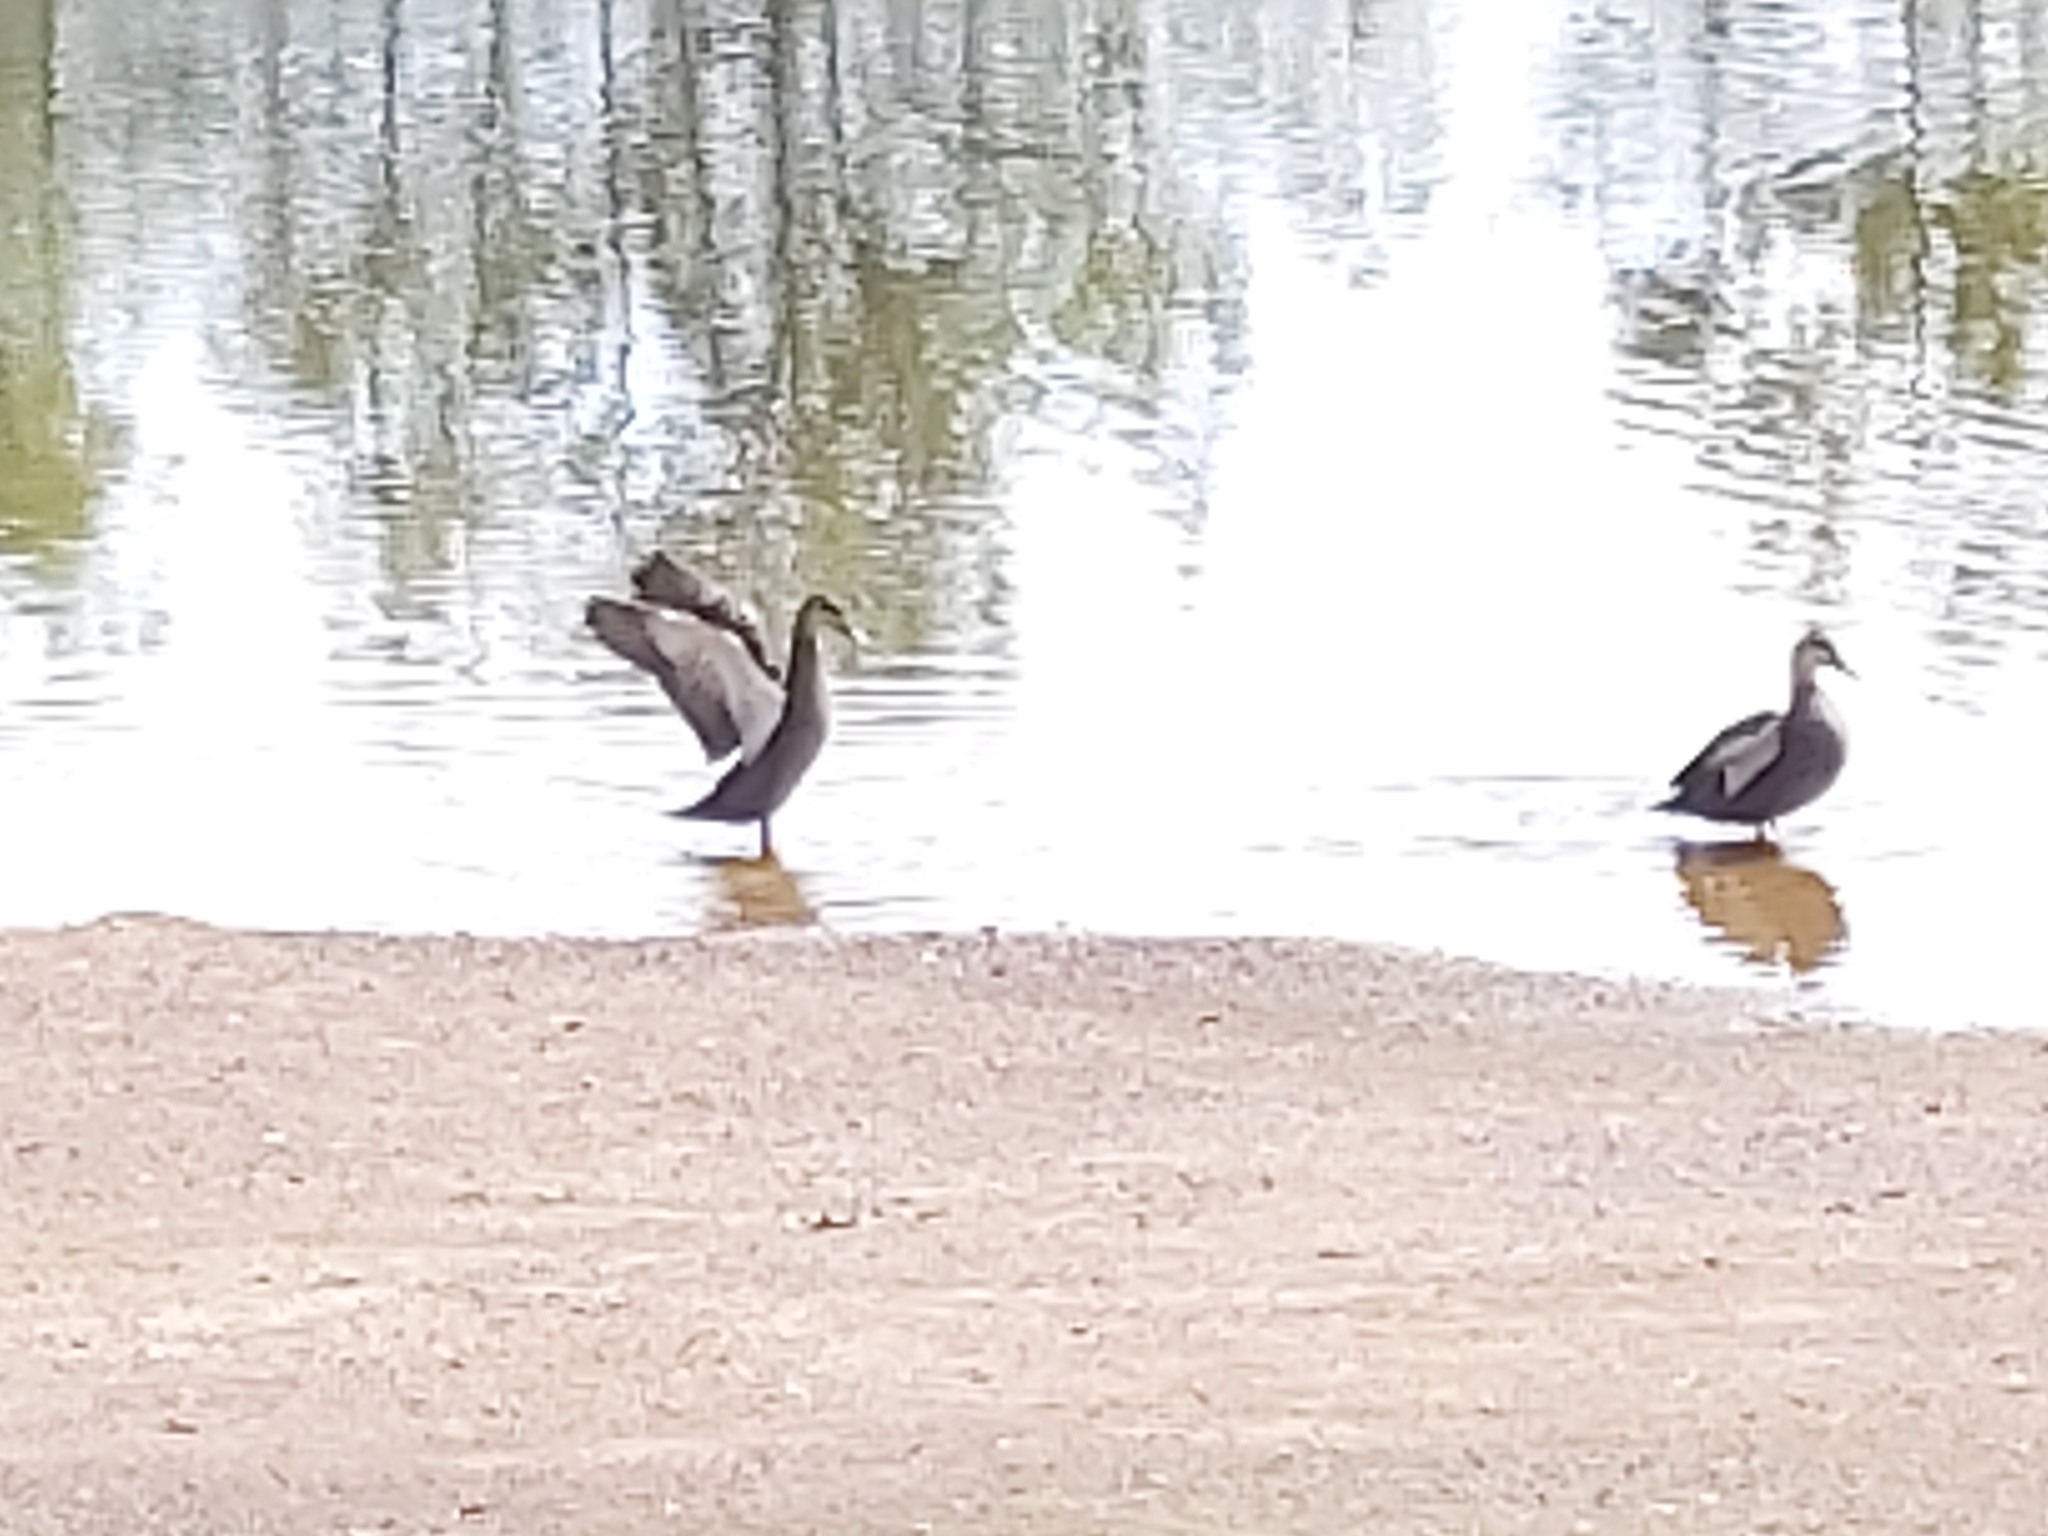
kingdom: Animalia
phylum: Chordata
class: Aves
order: Anseriformes
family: Anatidae
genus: Anas
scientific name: Anas superciliosa
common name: Pacific black duck
